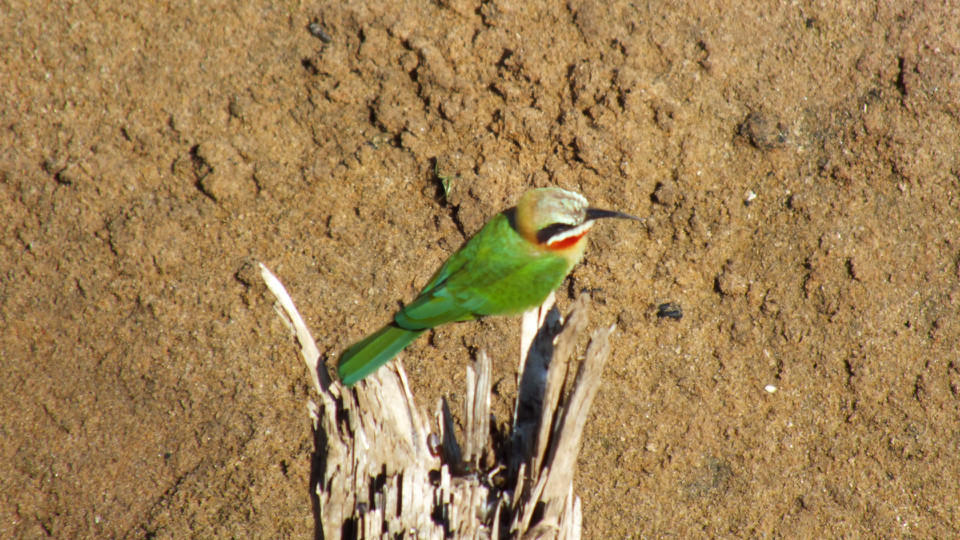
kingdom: Animalia
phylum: Chordata
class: Aves
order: Coraciiformes
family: Meropidae
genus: Merops
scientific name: Merops bullockoides
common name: White-fronted bee-eater
